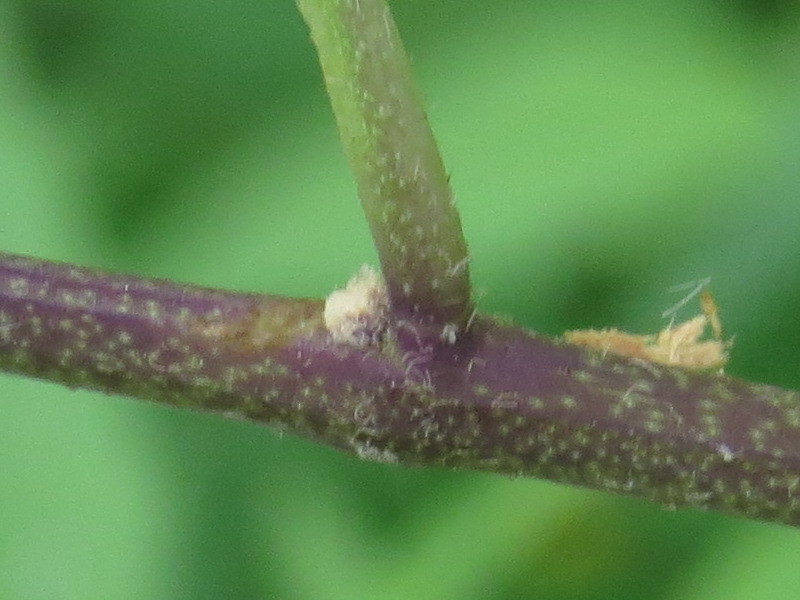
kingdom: Plantae
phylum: Tracheophyta
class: Magnoliopsida
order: Solanales
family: Solanaceae
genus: Solanum
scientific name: Solanum dulcamara
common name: Climbing nightshade
